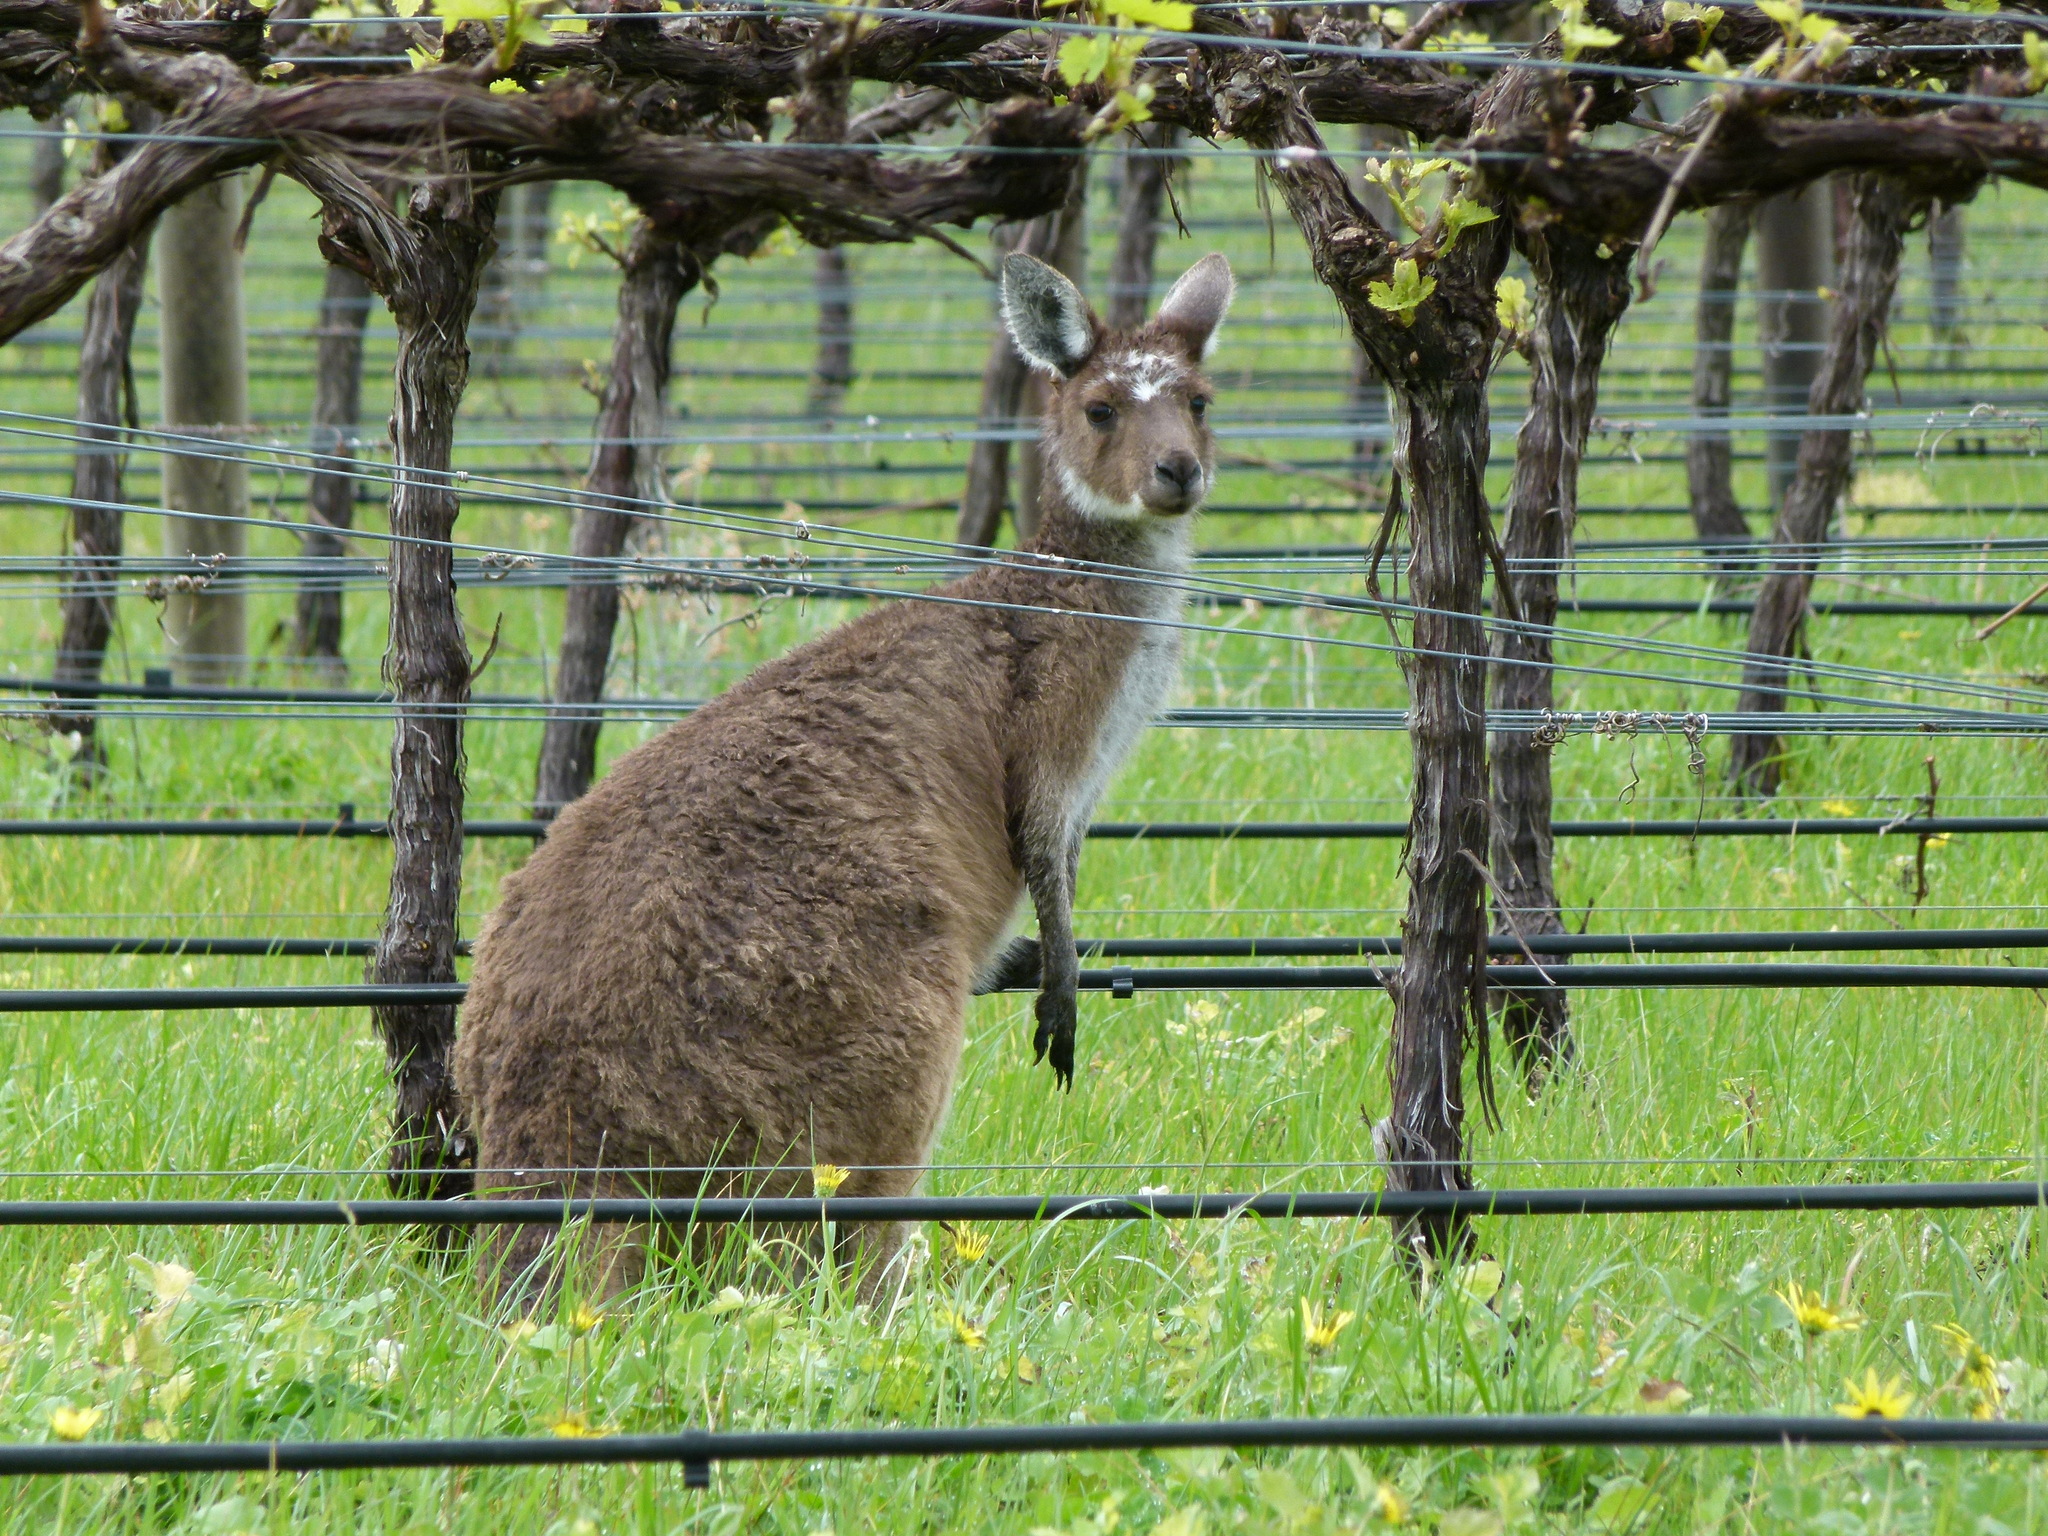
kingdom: Animalia
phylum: Chordata
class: Mammalia
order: Diprotodontia
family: Macropodidae
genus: Macropus
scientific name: Macropus fuliginosus
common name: Western grey kangaroo
